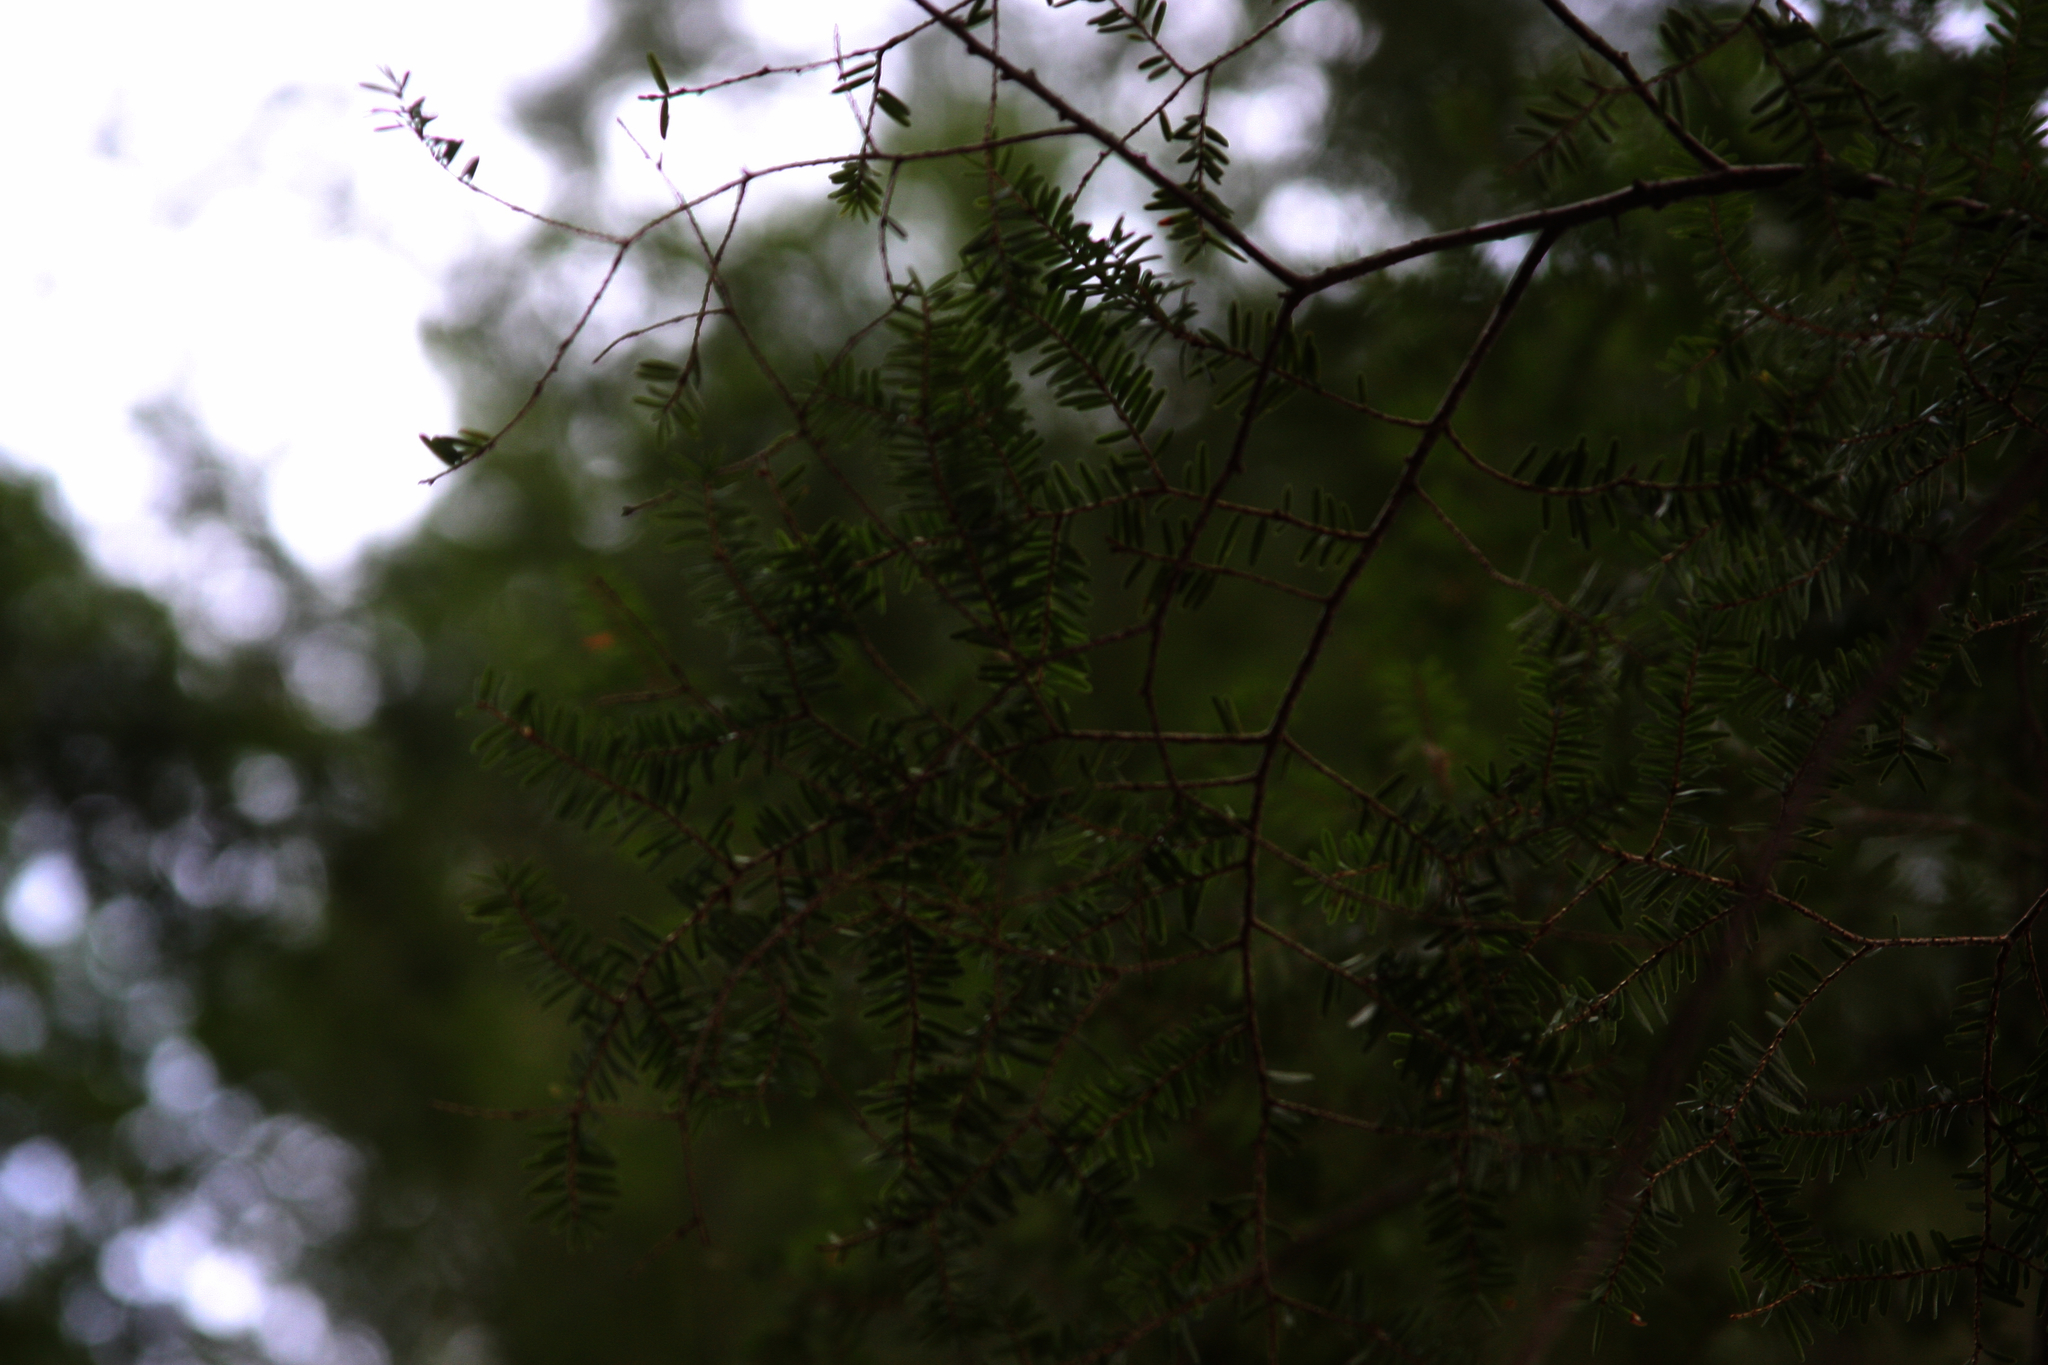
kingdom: Plantae
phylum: Tracheophyta
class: Pinopsida
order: Pinales
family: Pinaceae
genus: Tsuga
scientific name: Tsuga canadensis
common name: Eastern hemlock
